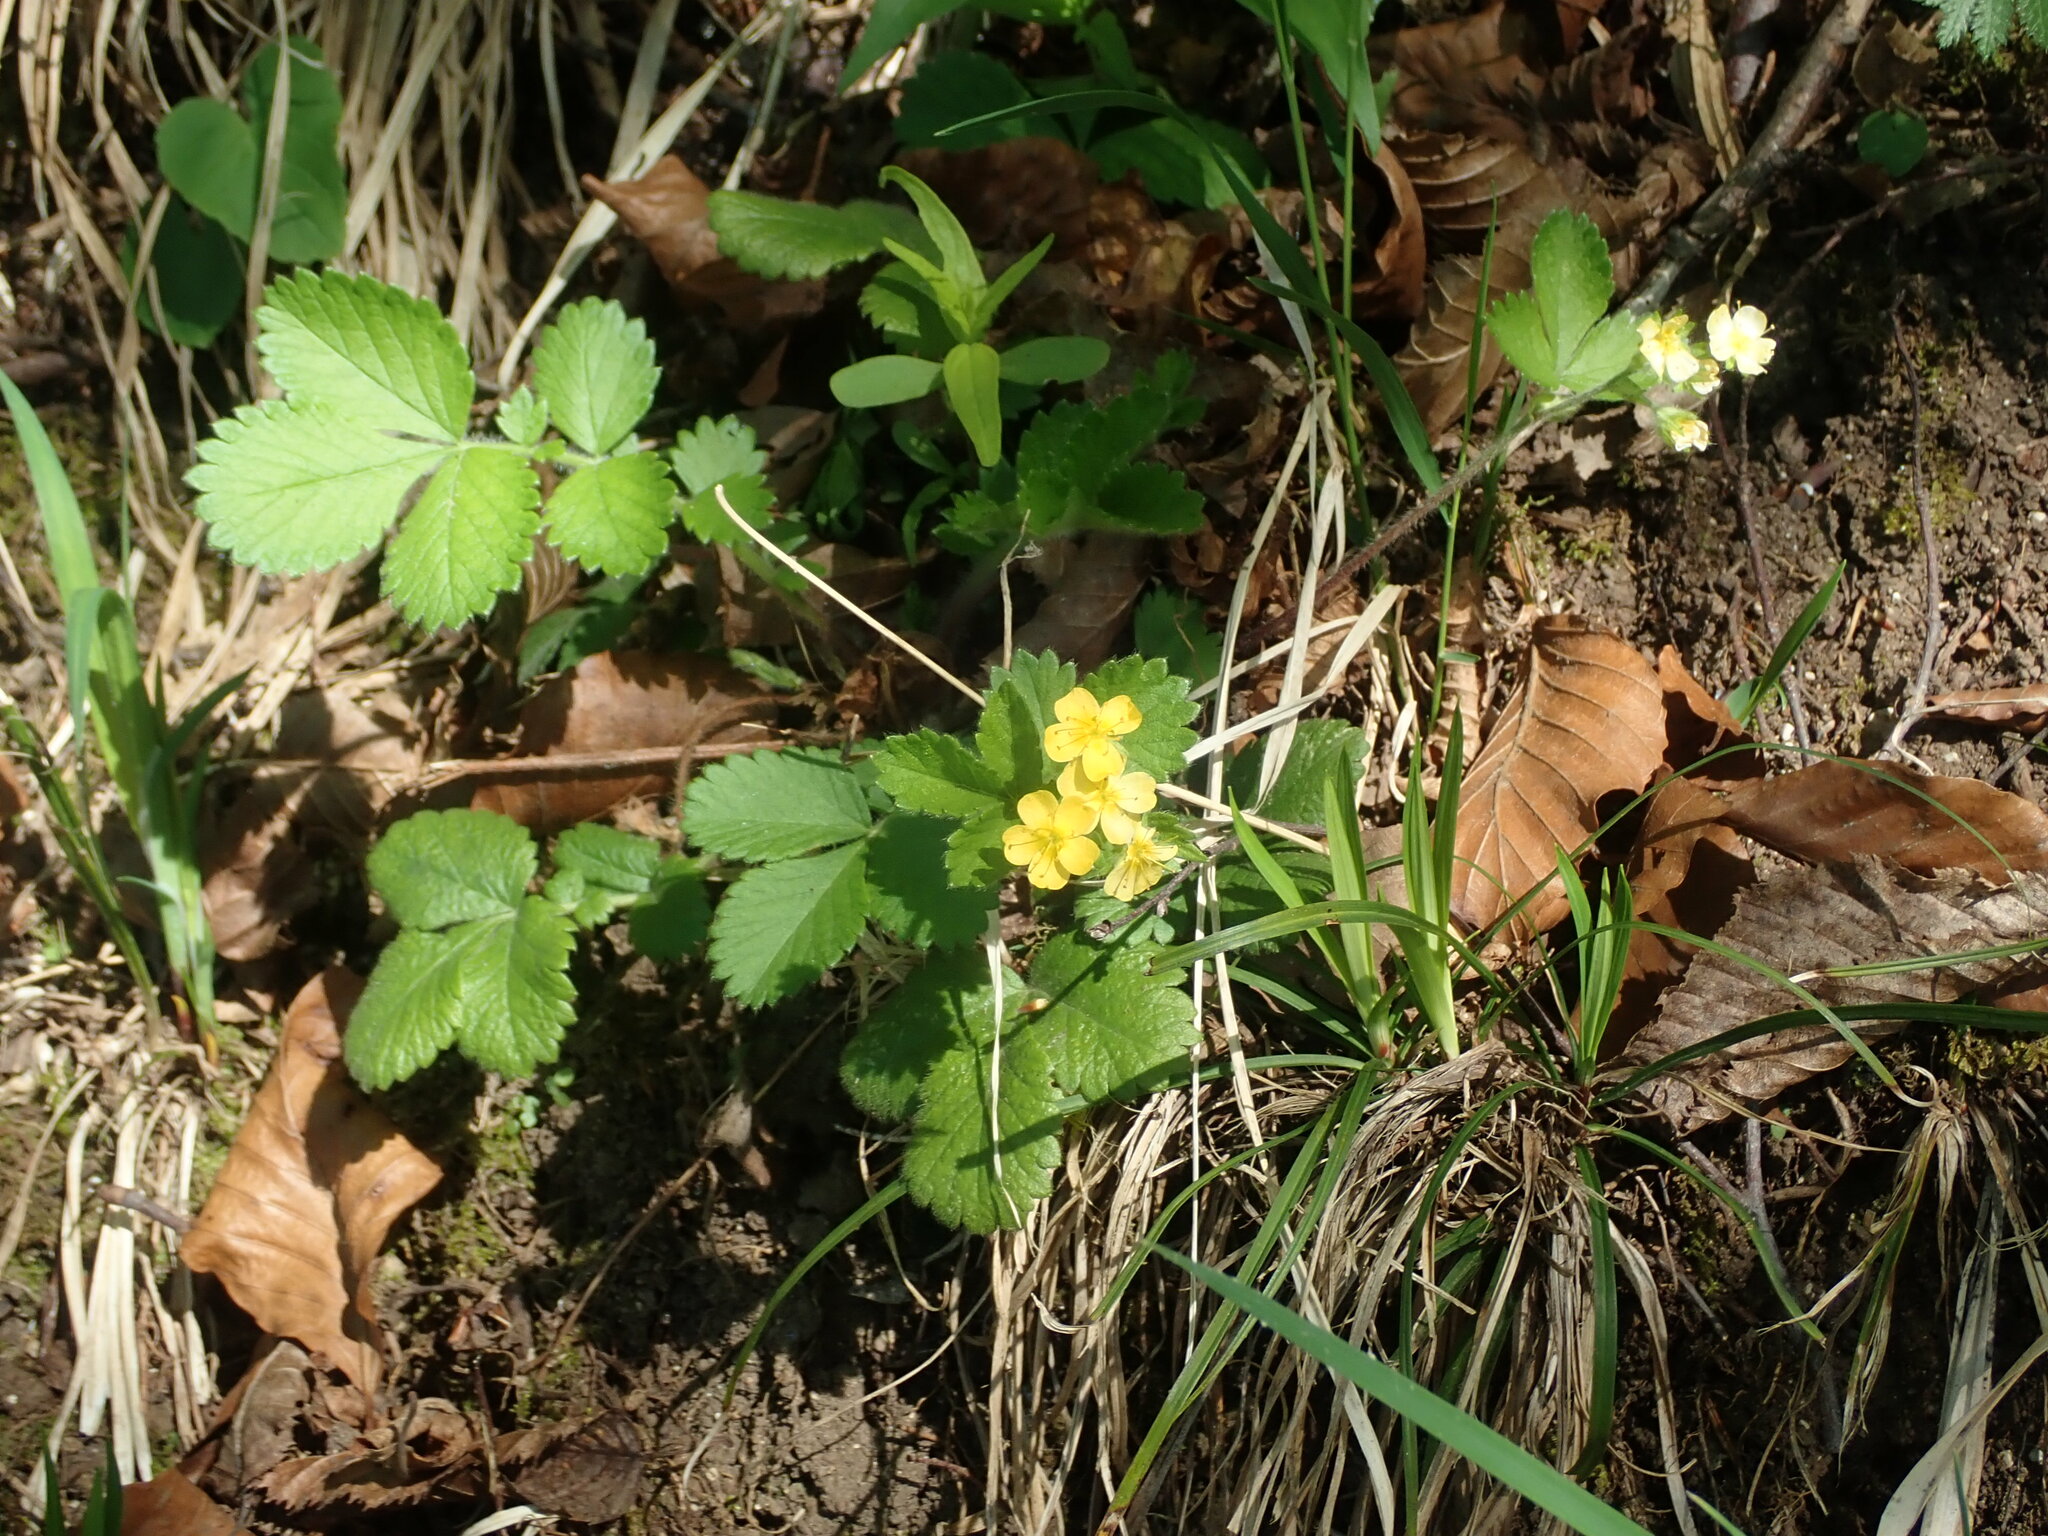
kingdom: Plantae
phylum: Tracheophyta
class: Magnoliopsida
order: Rosales
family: Rosaceae
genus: Aremonia
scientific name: Aremonia agrimonoides
